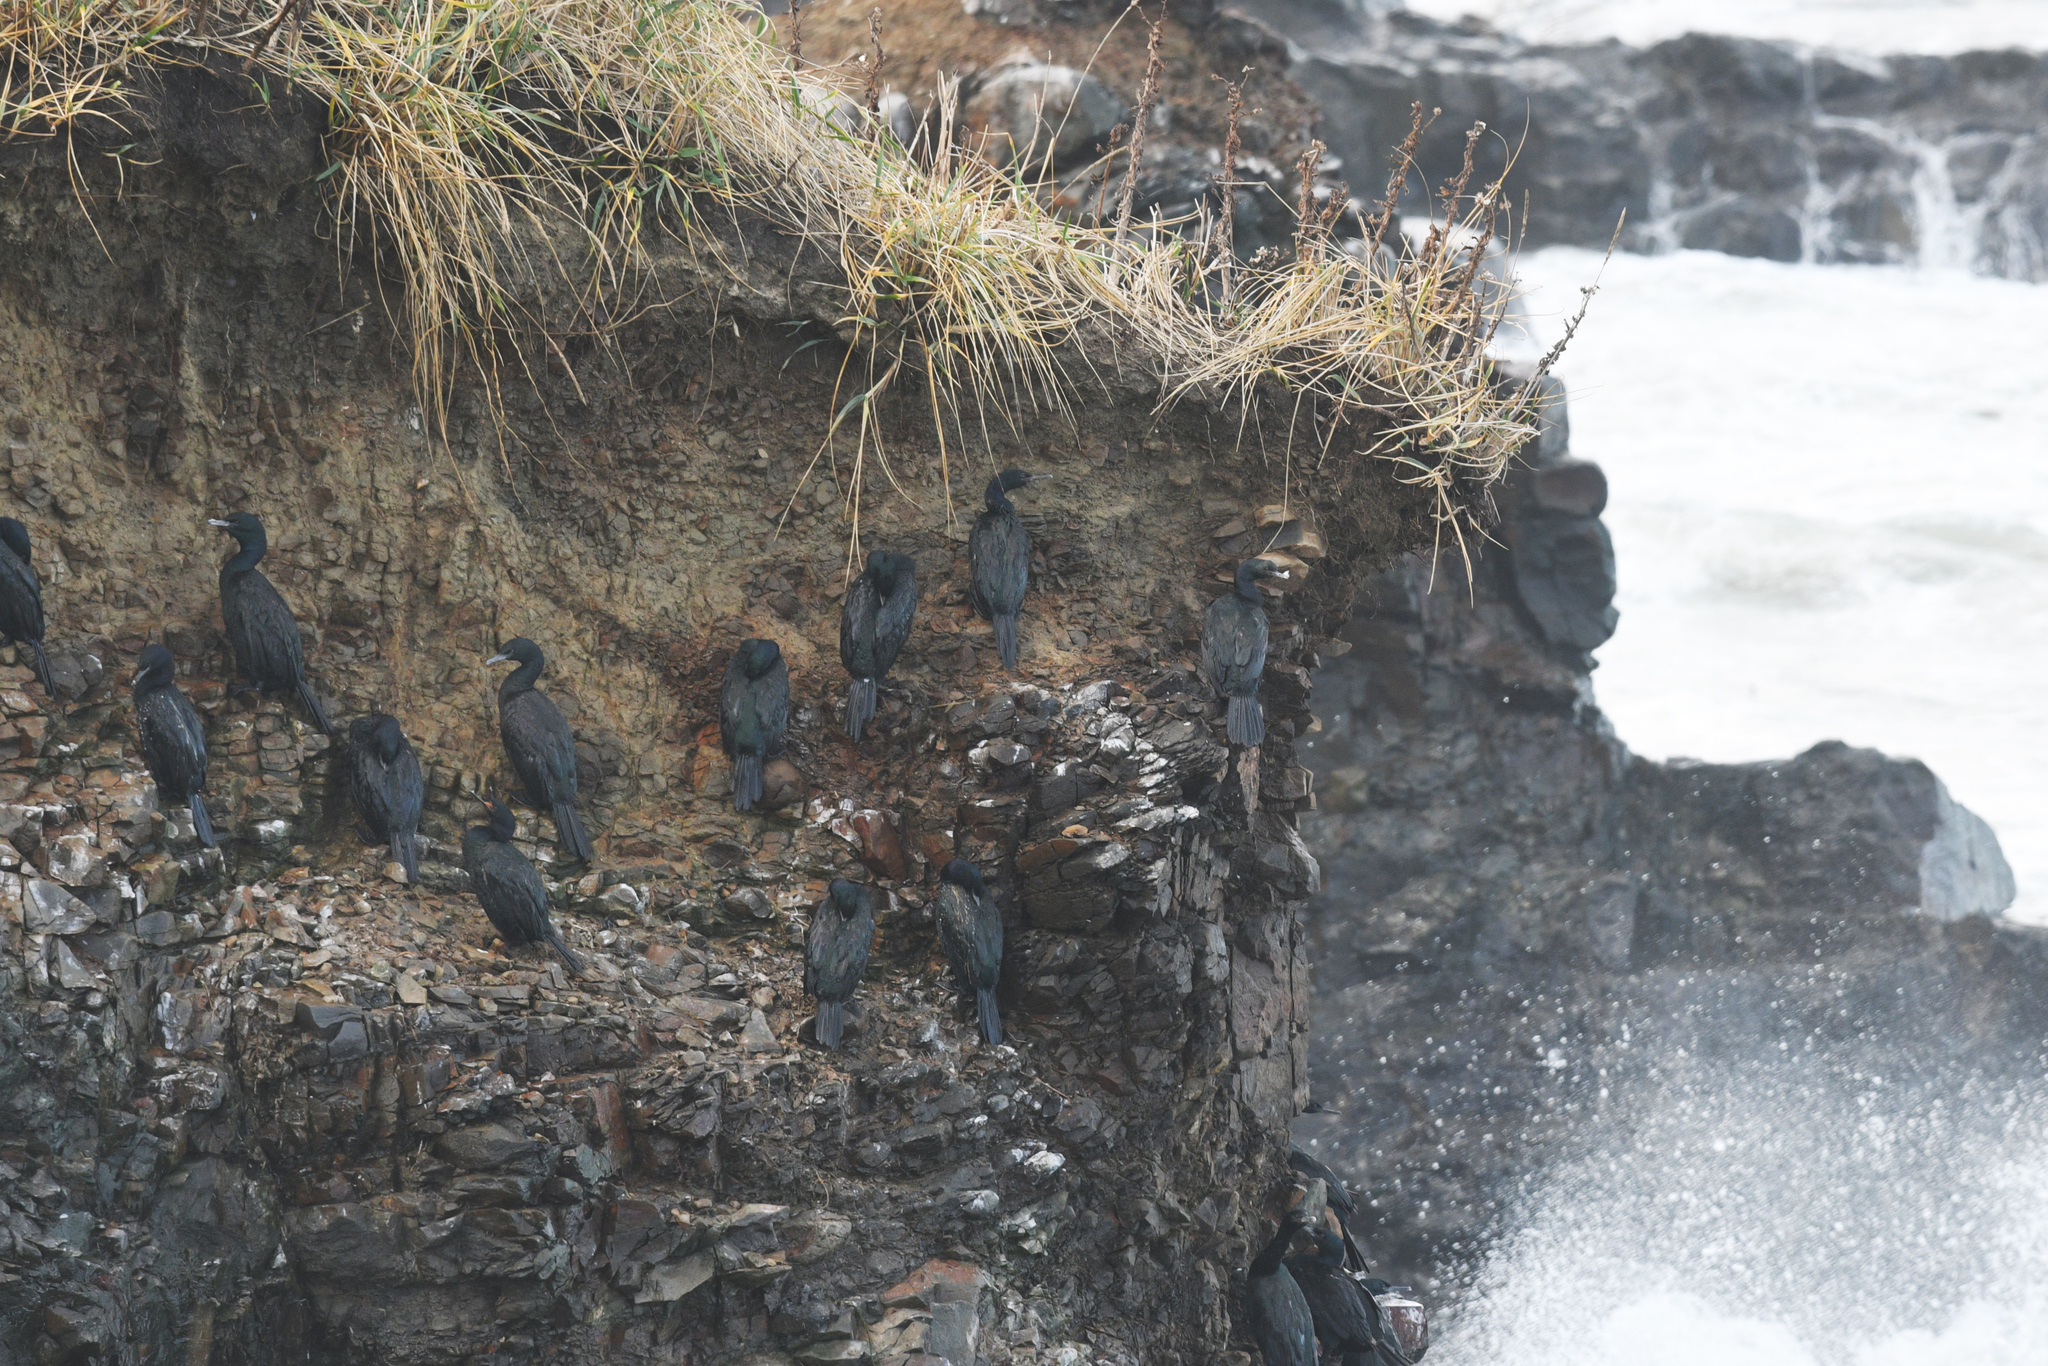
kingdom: Animalia
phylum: Chordata
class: Aves
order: Suliformes
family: Phalacrocoracidae
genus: Phalacrocorax
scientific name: Phalacrocorax pelagicus
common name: Pelagic cormorant
